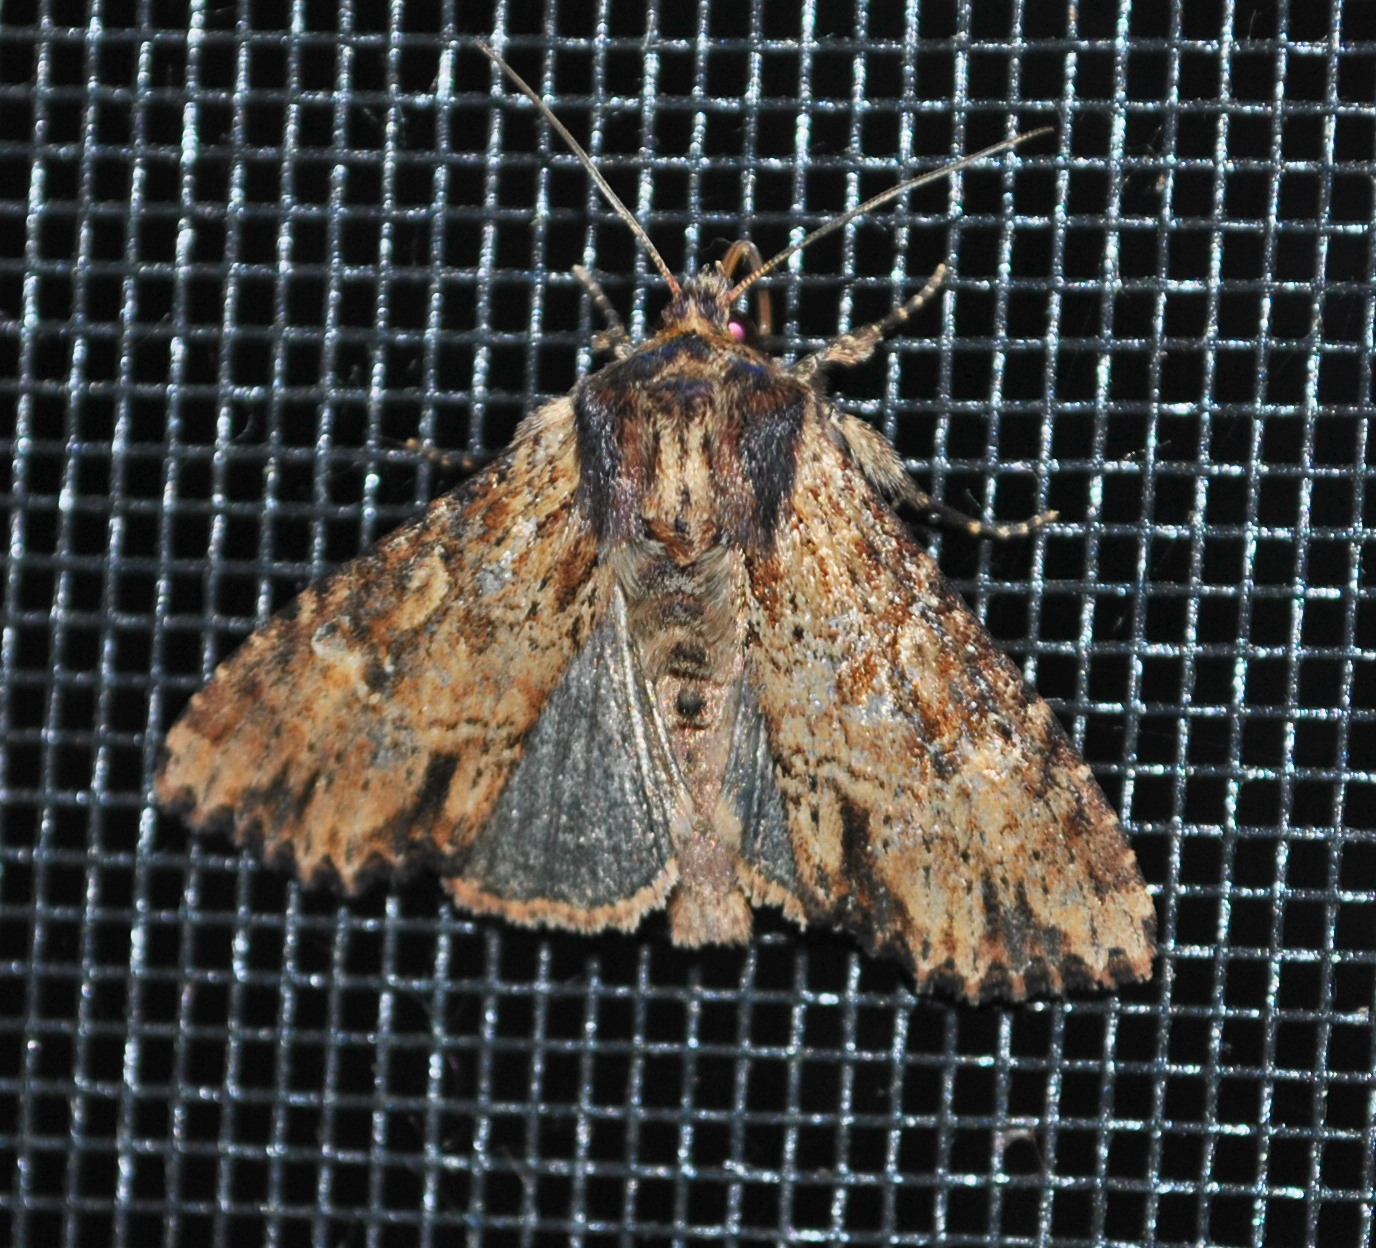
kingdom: Animalia
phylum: Arthropoda
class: Insecta
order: Lepidoptera
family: Noctuidae
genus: Apamea
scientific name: Apamea vultuosa
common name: Airy apamea moth
